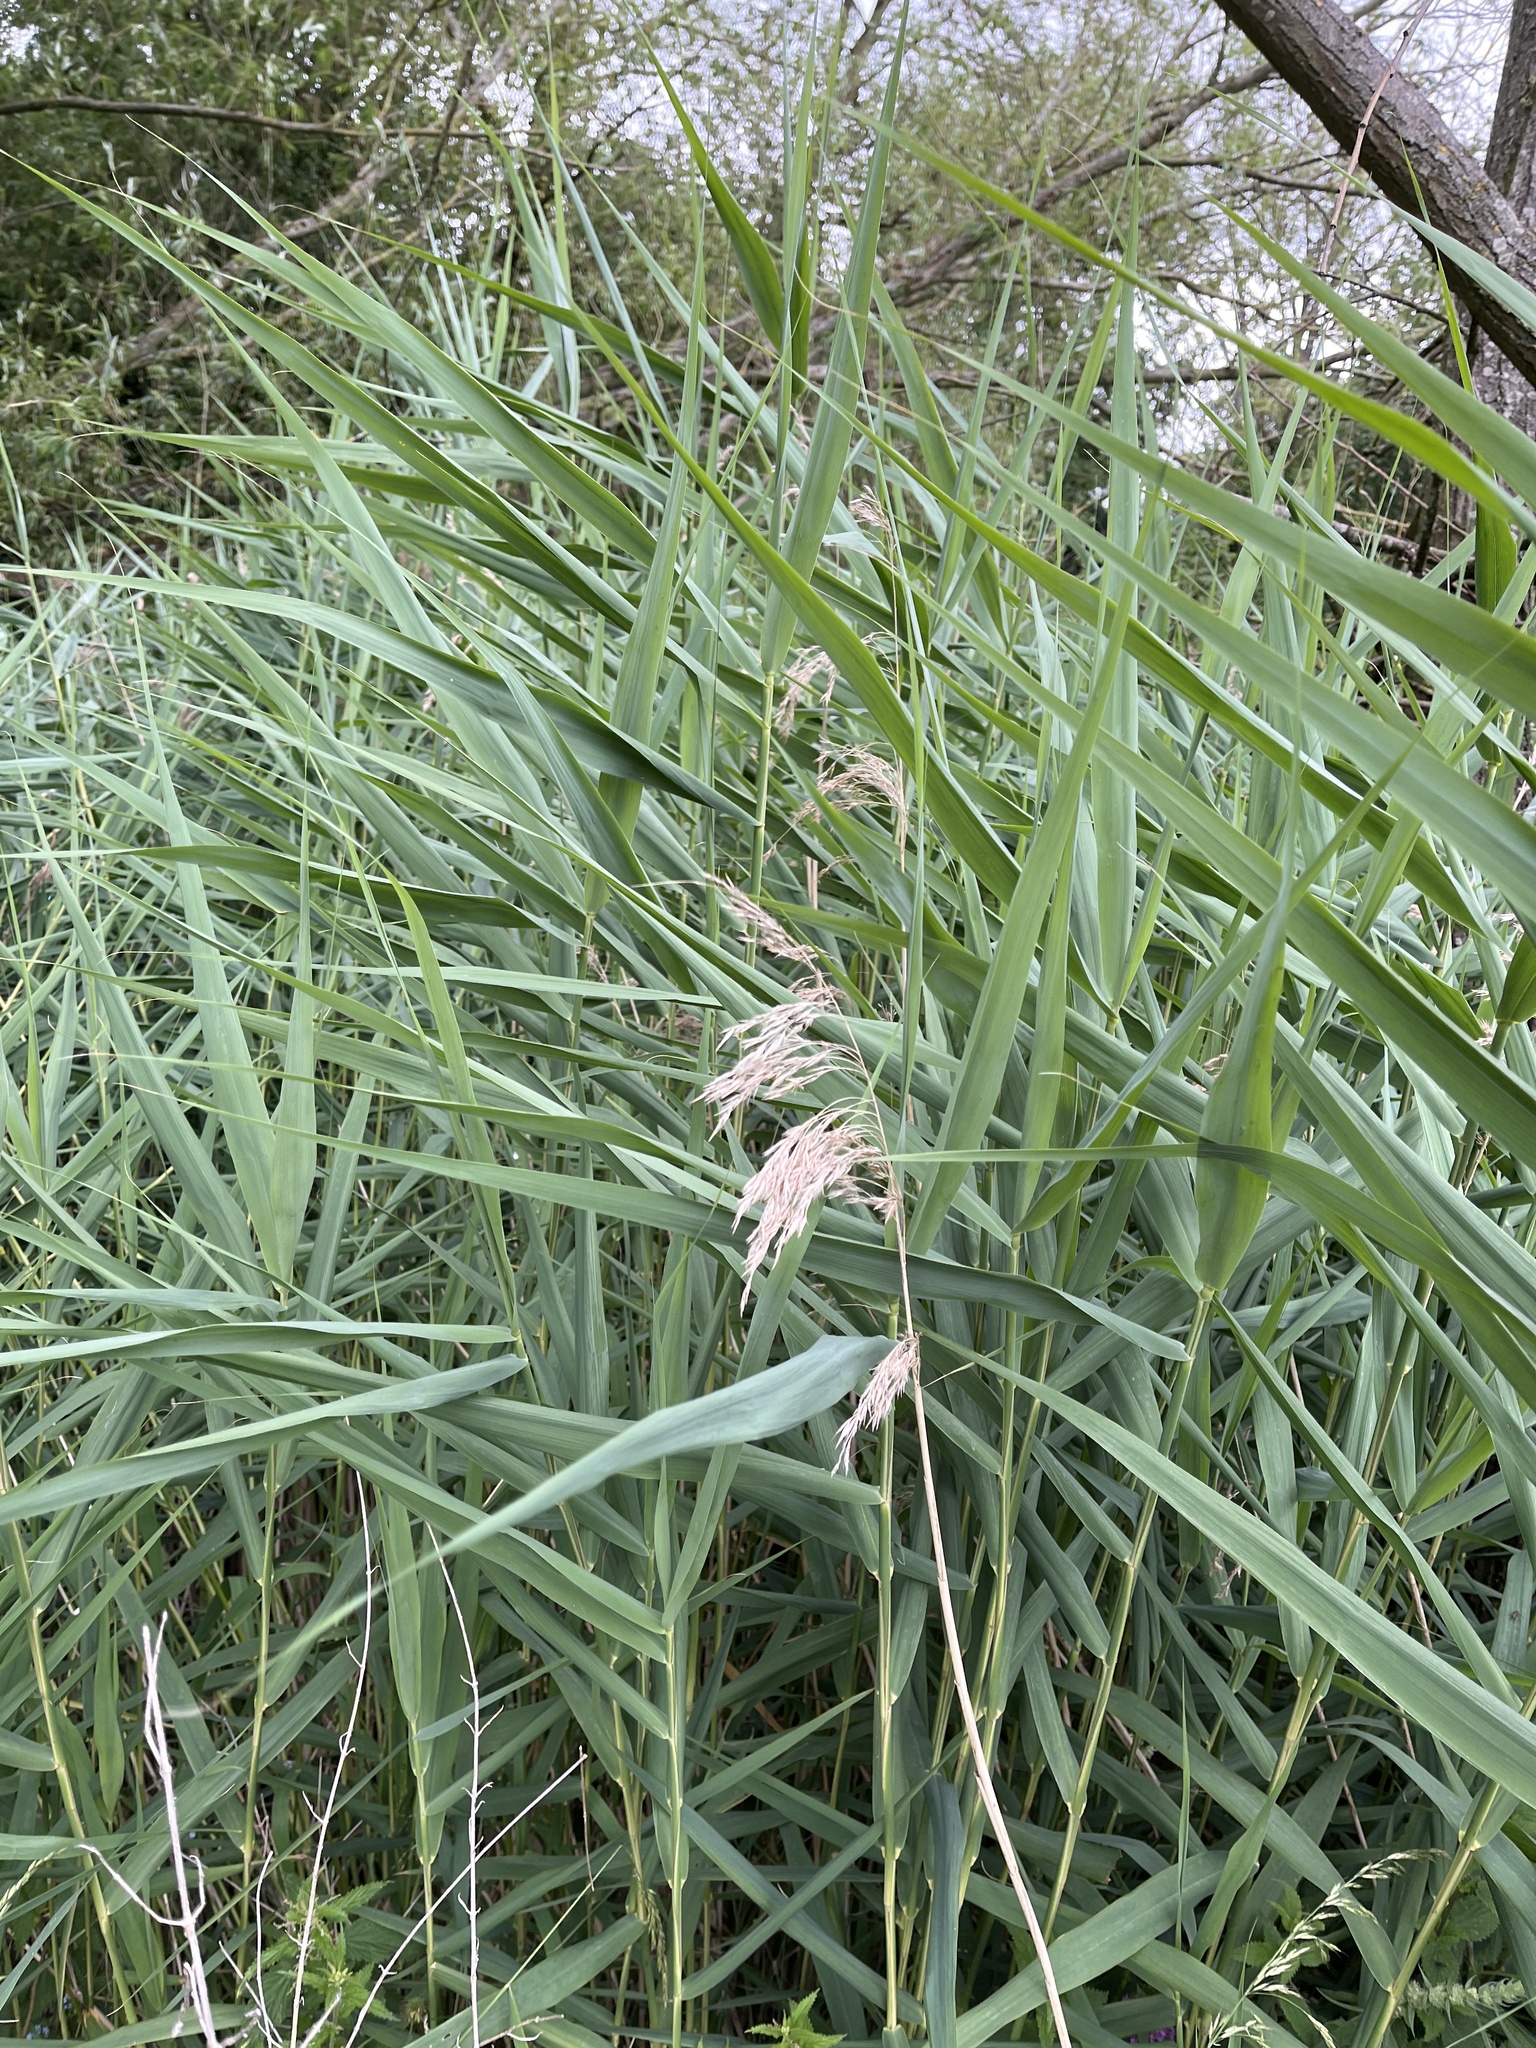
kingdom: Plantae
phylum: Tracheophyta
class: Liliopsida
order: Poales
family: Poaceae
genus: Phragmites
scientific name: Phragmites australis
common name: Common reed
